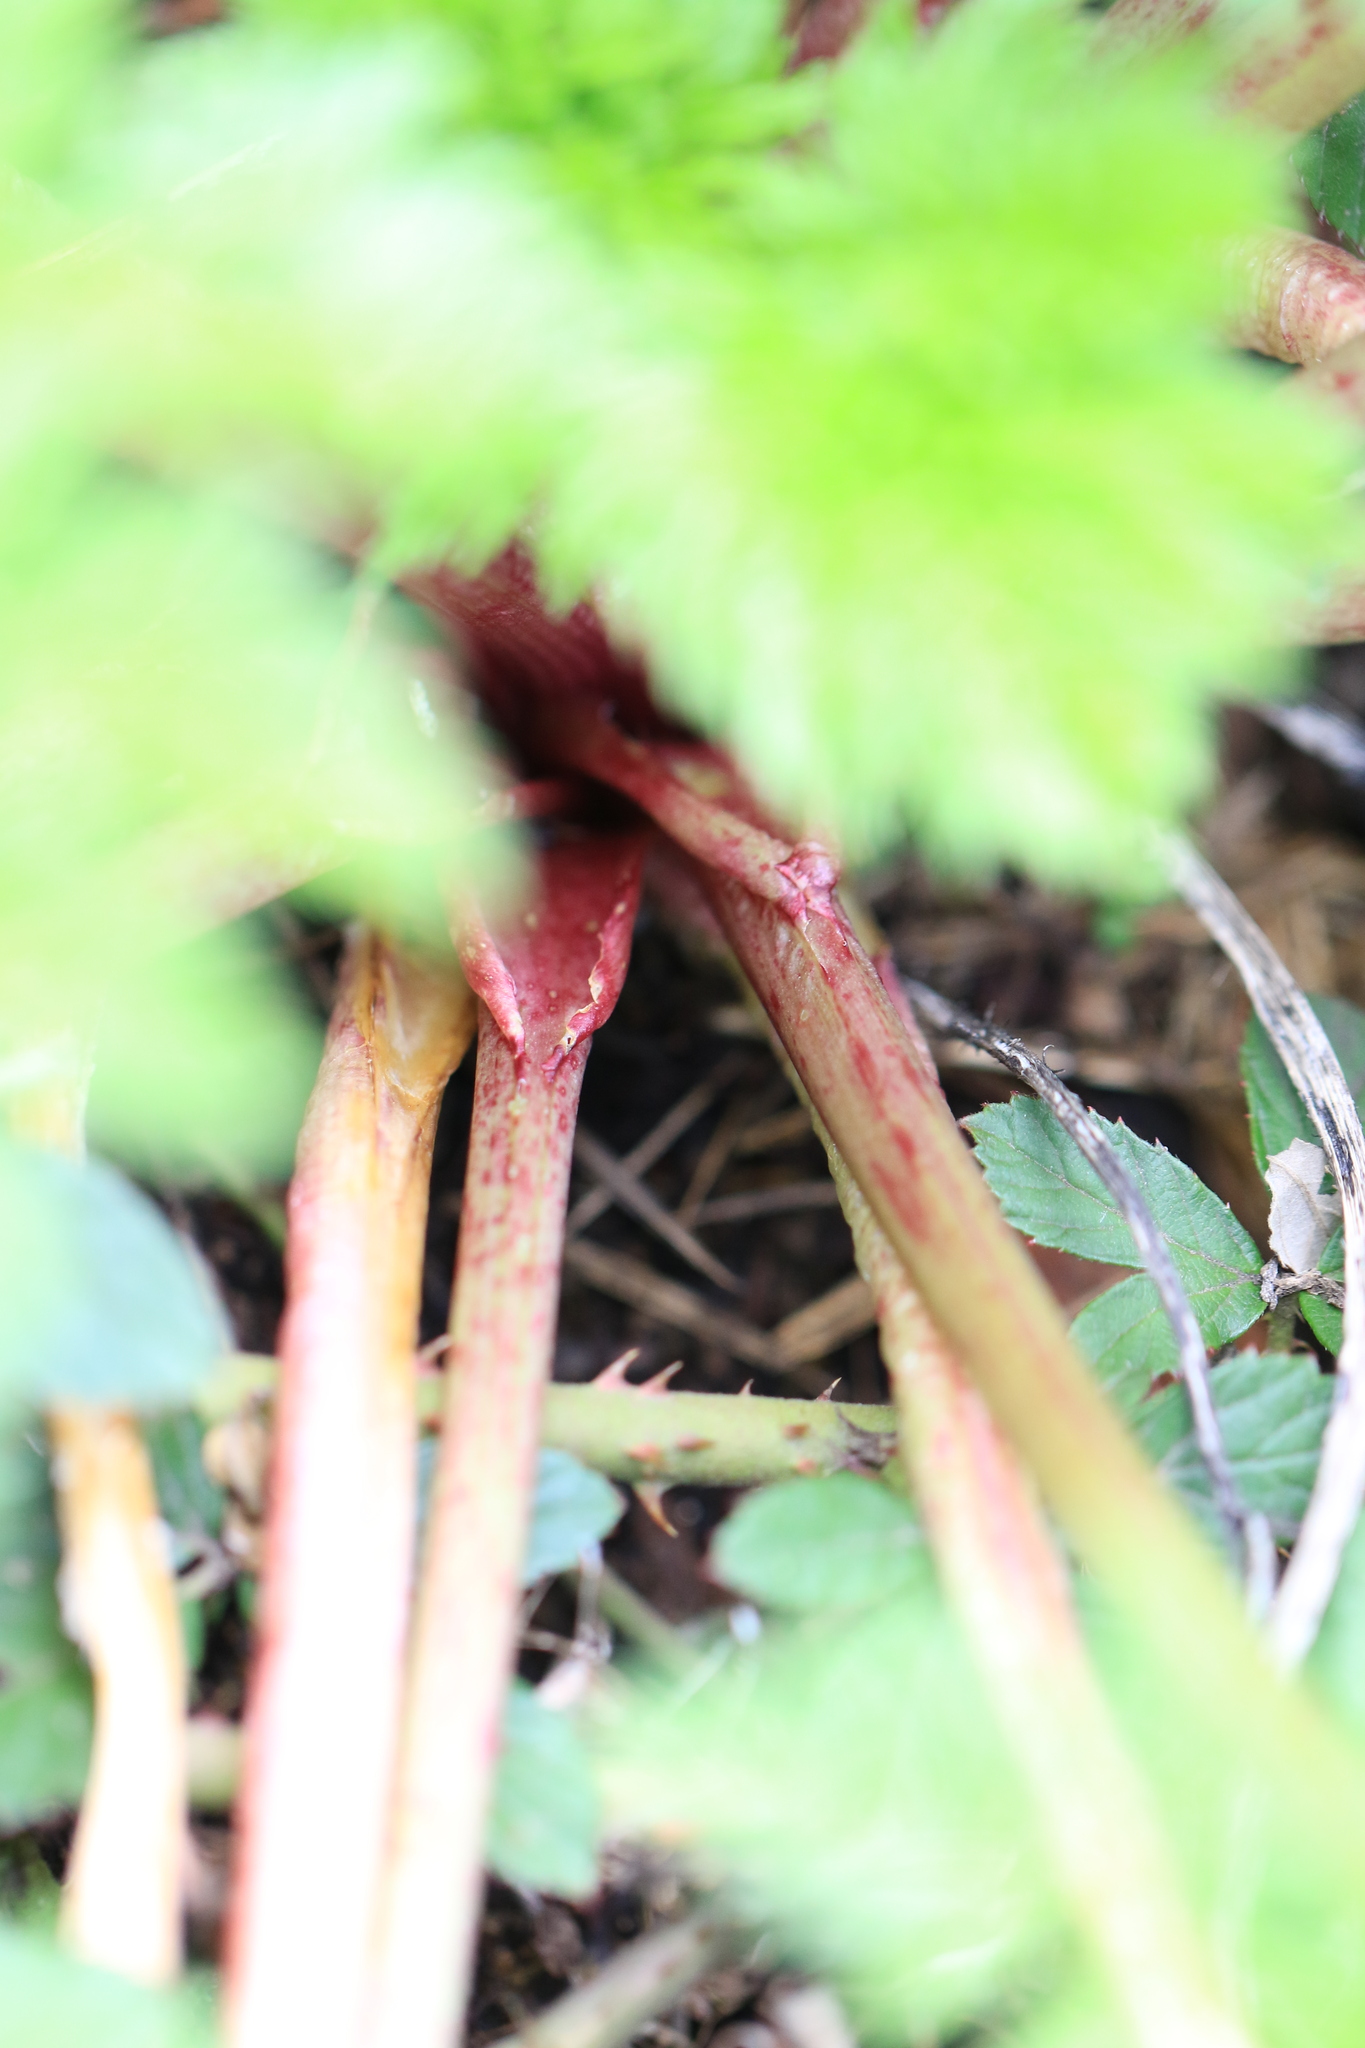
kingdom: Plantae
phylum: Tracheophyta
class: Magnoliopsida
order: Apiales
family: Apiaceae
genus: Conium
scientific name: Conium maculatum
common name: Hemlock
